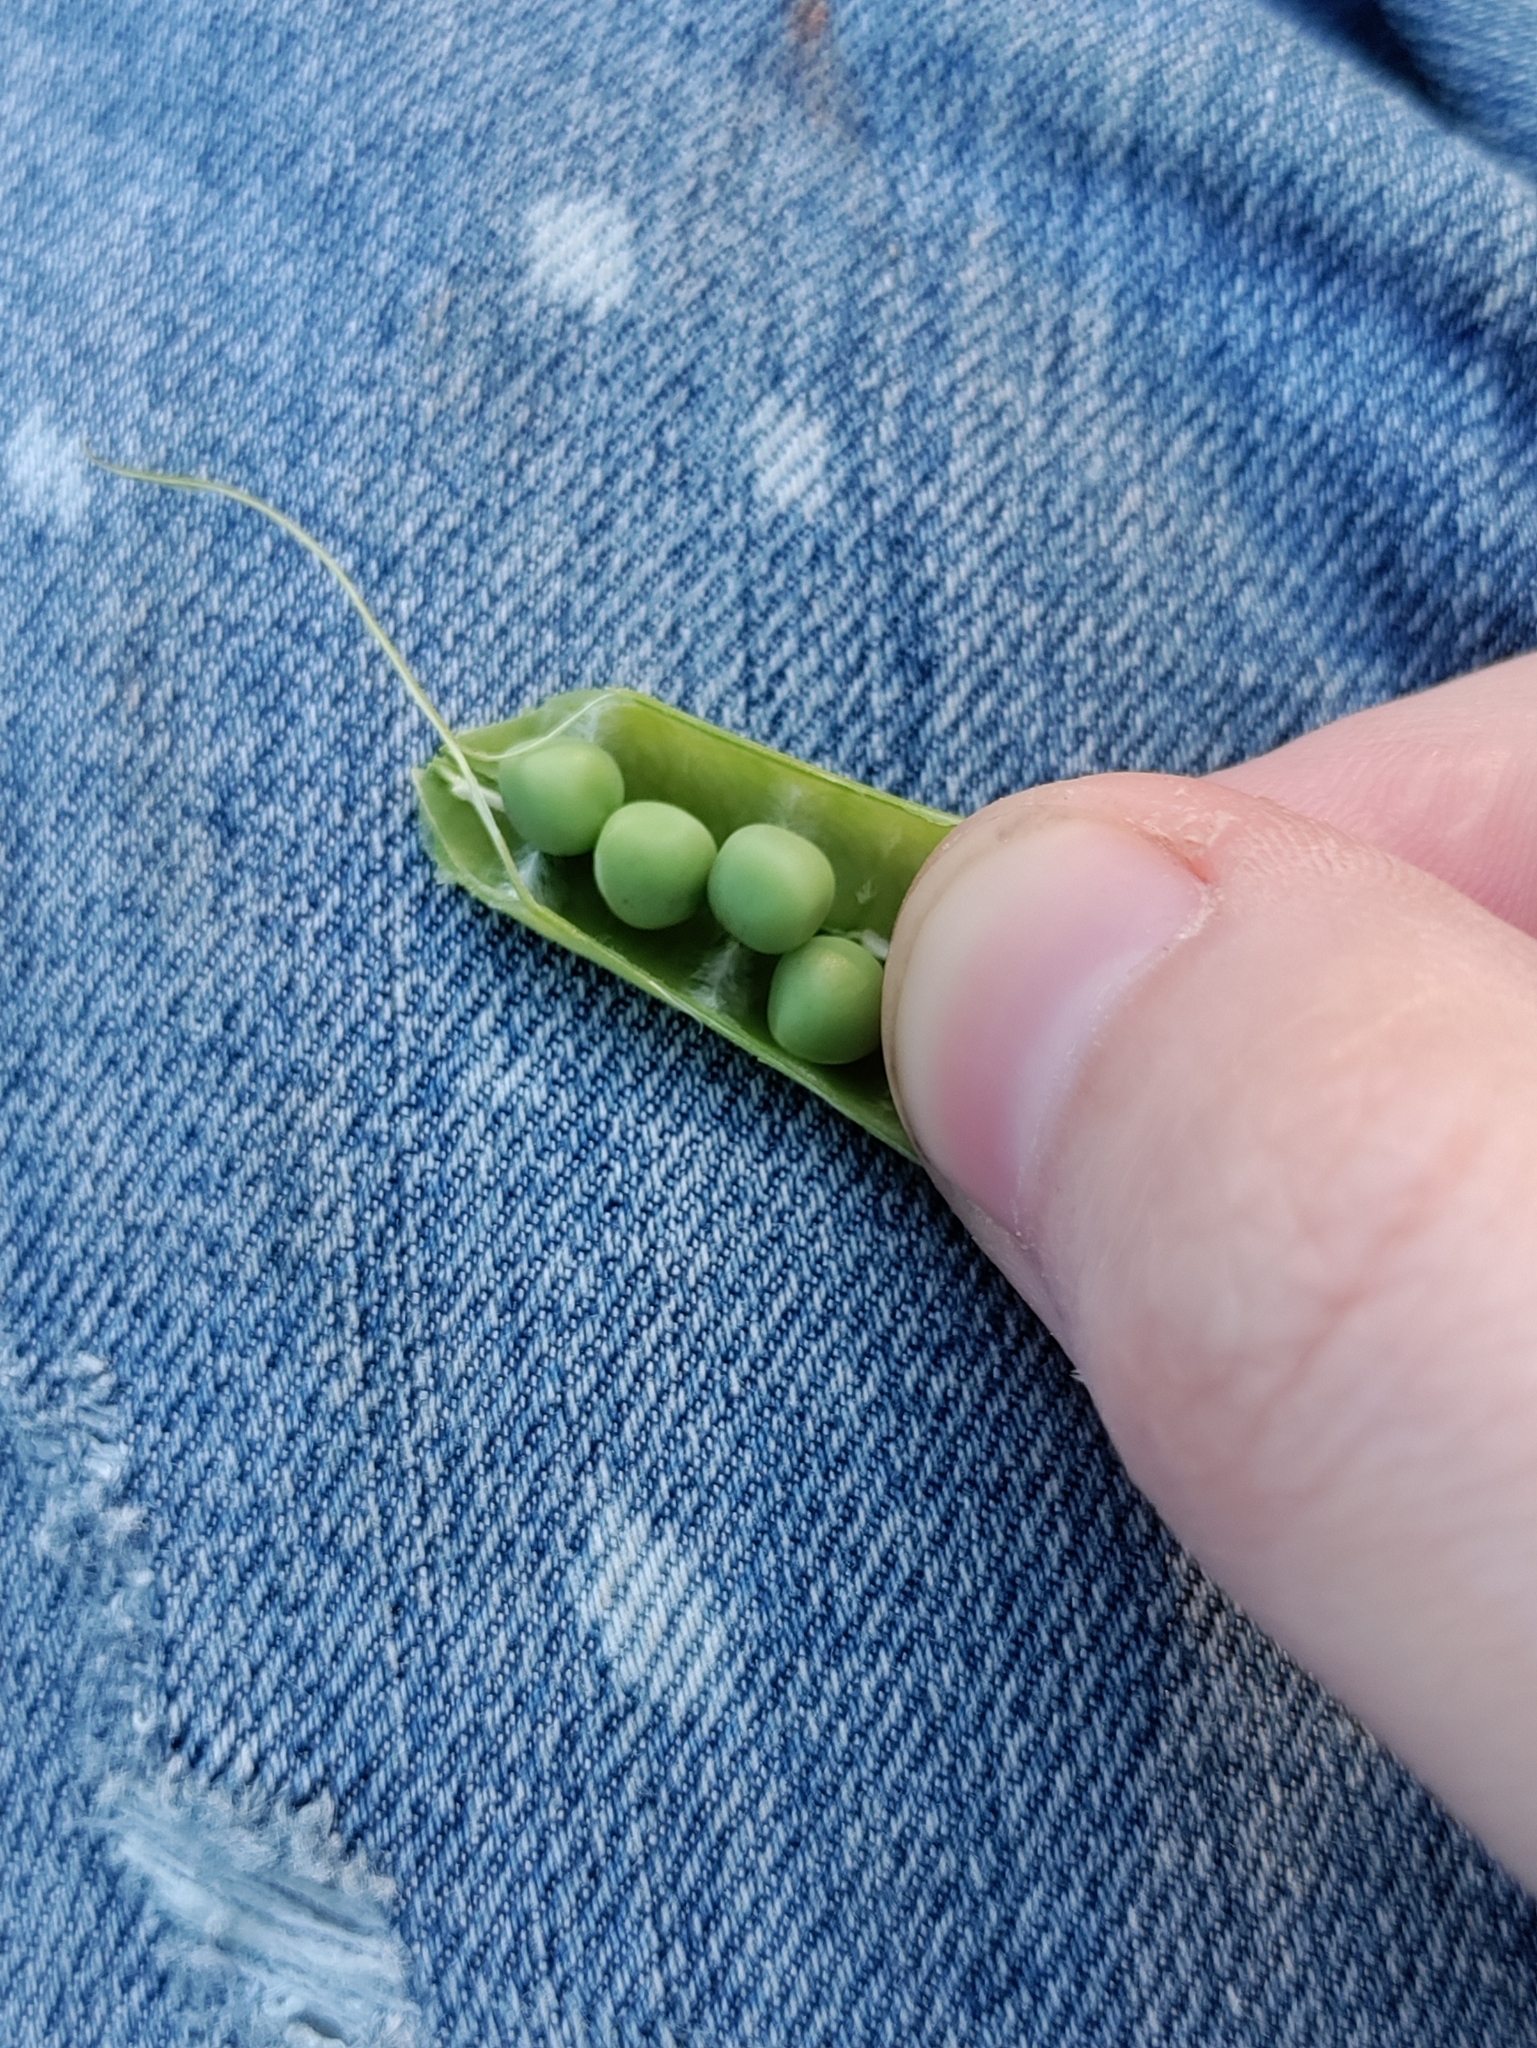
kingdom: Plantae
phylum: Tracheophyta
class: Magnoliopsida
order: Fabales
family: Fabaceae
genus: Vicia
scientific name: Vicia sativa
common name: Garden vetch
